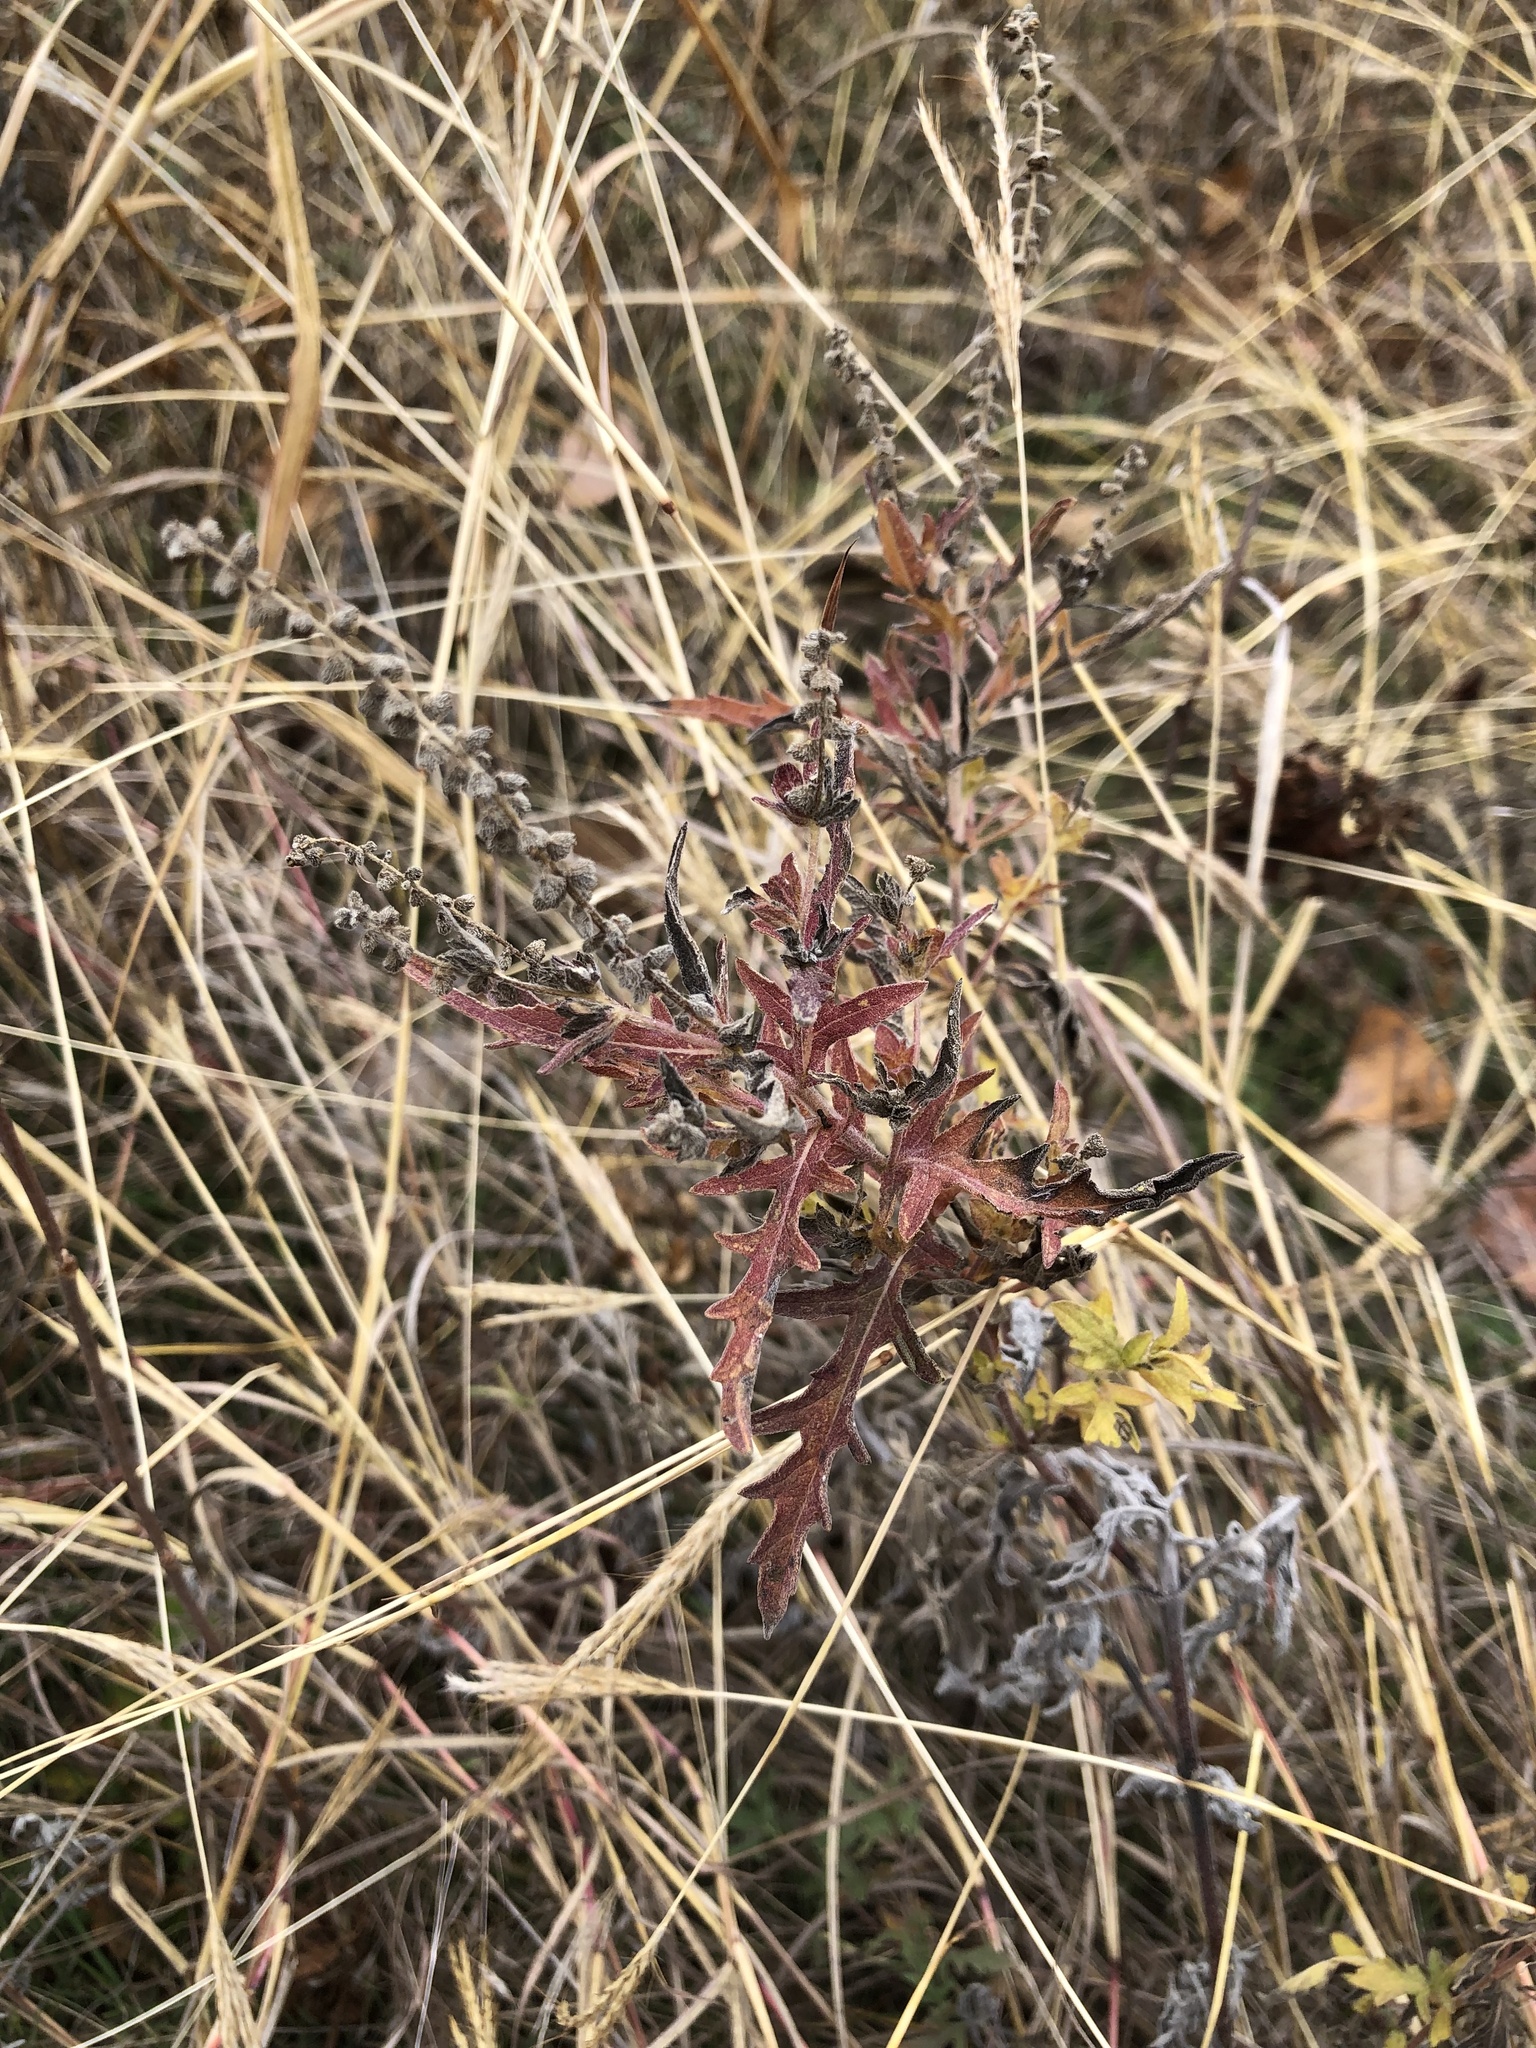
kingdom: Plantae
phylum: Tracheophyta
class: Magnoliopsida
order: Asterales
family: Asteraceae
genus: Ambrosia
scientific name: Ambrosia psilostachya
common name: Perennial ragweed
